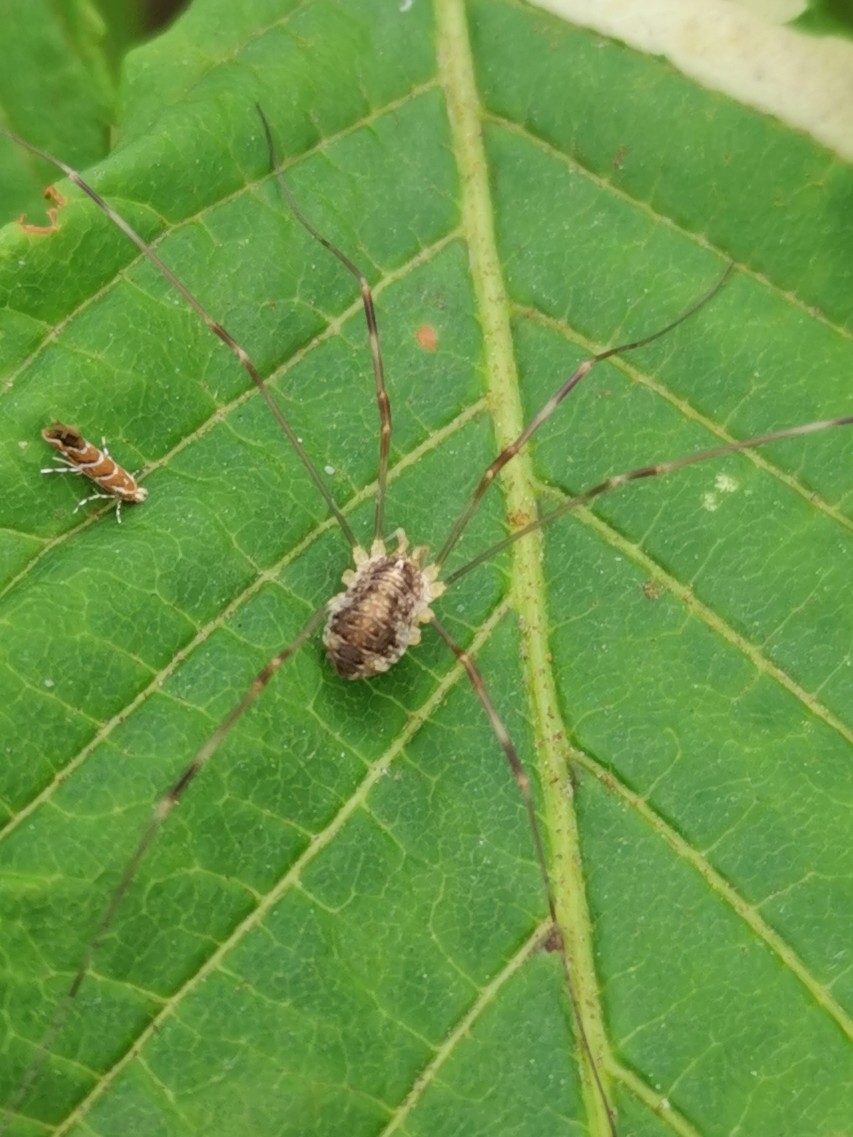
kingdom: Animalia
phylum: Arthropoda
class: Arachnida
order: Opiliones
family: Phalangiidae
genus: Opilio
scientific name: Opilio canestrinii
